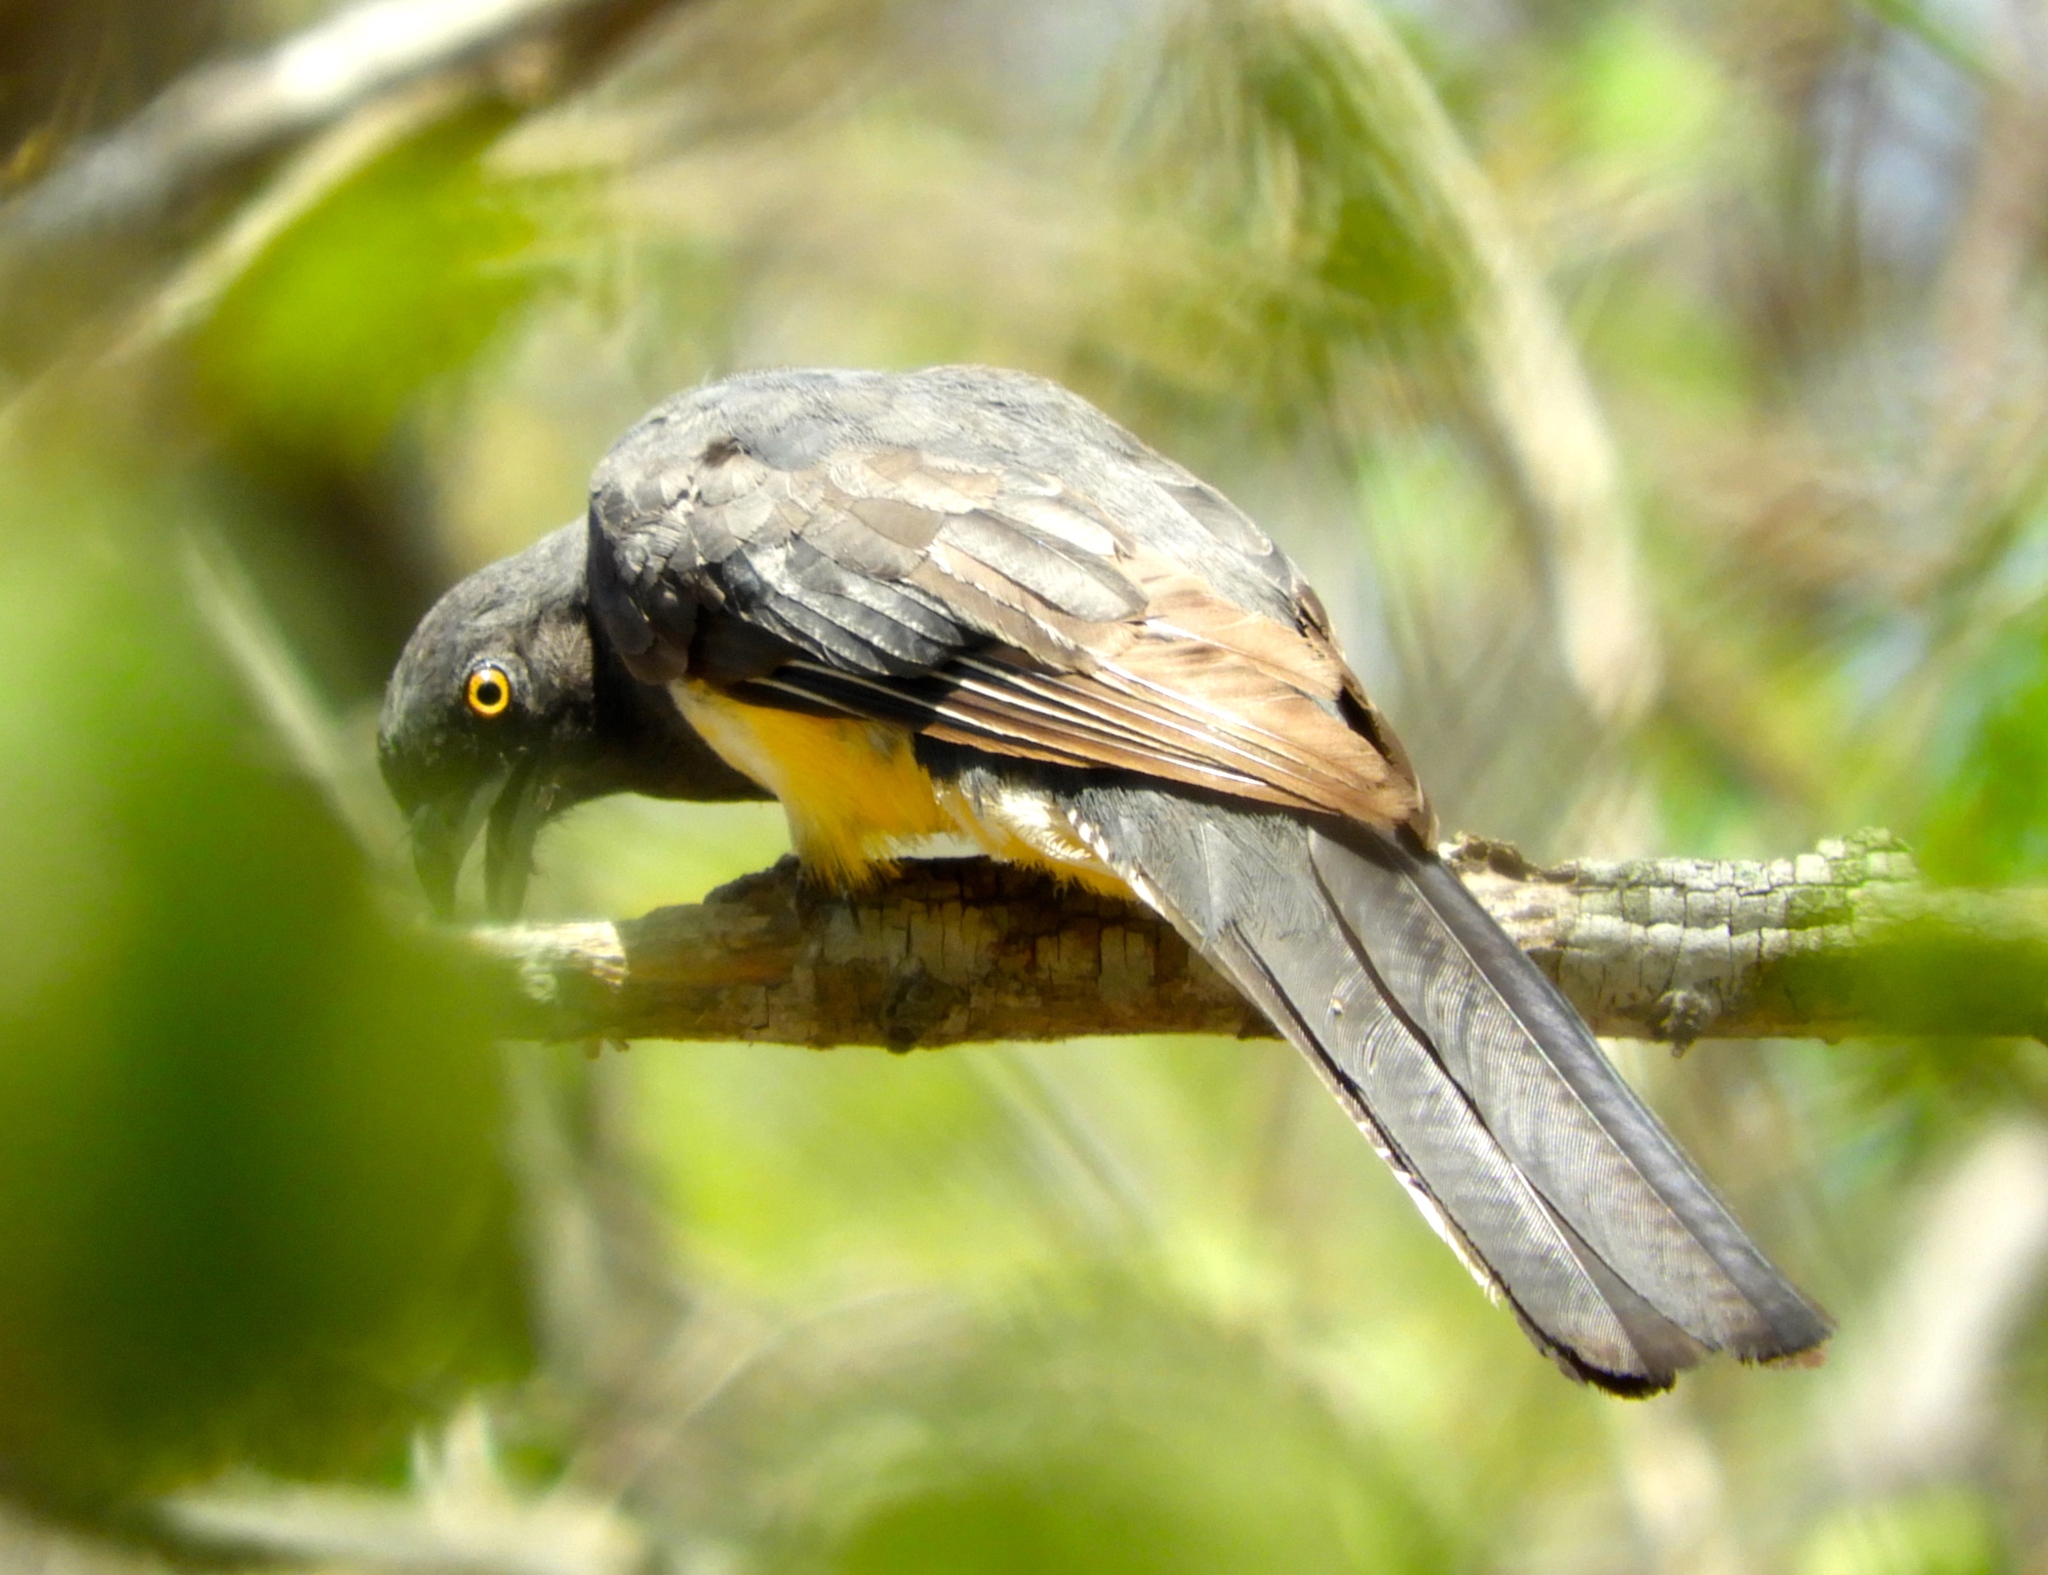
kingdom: Animalia
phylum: Chordata
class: Aves
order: Trogoniformes
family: Trogonidae
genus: Trogon
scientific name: Trogon citreolus
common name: Citreoline trogon
